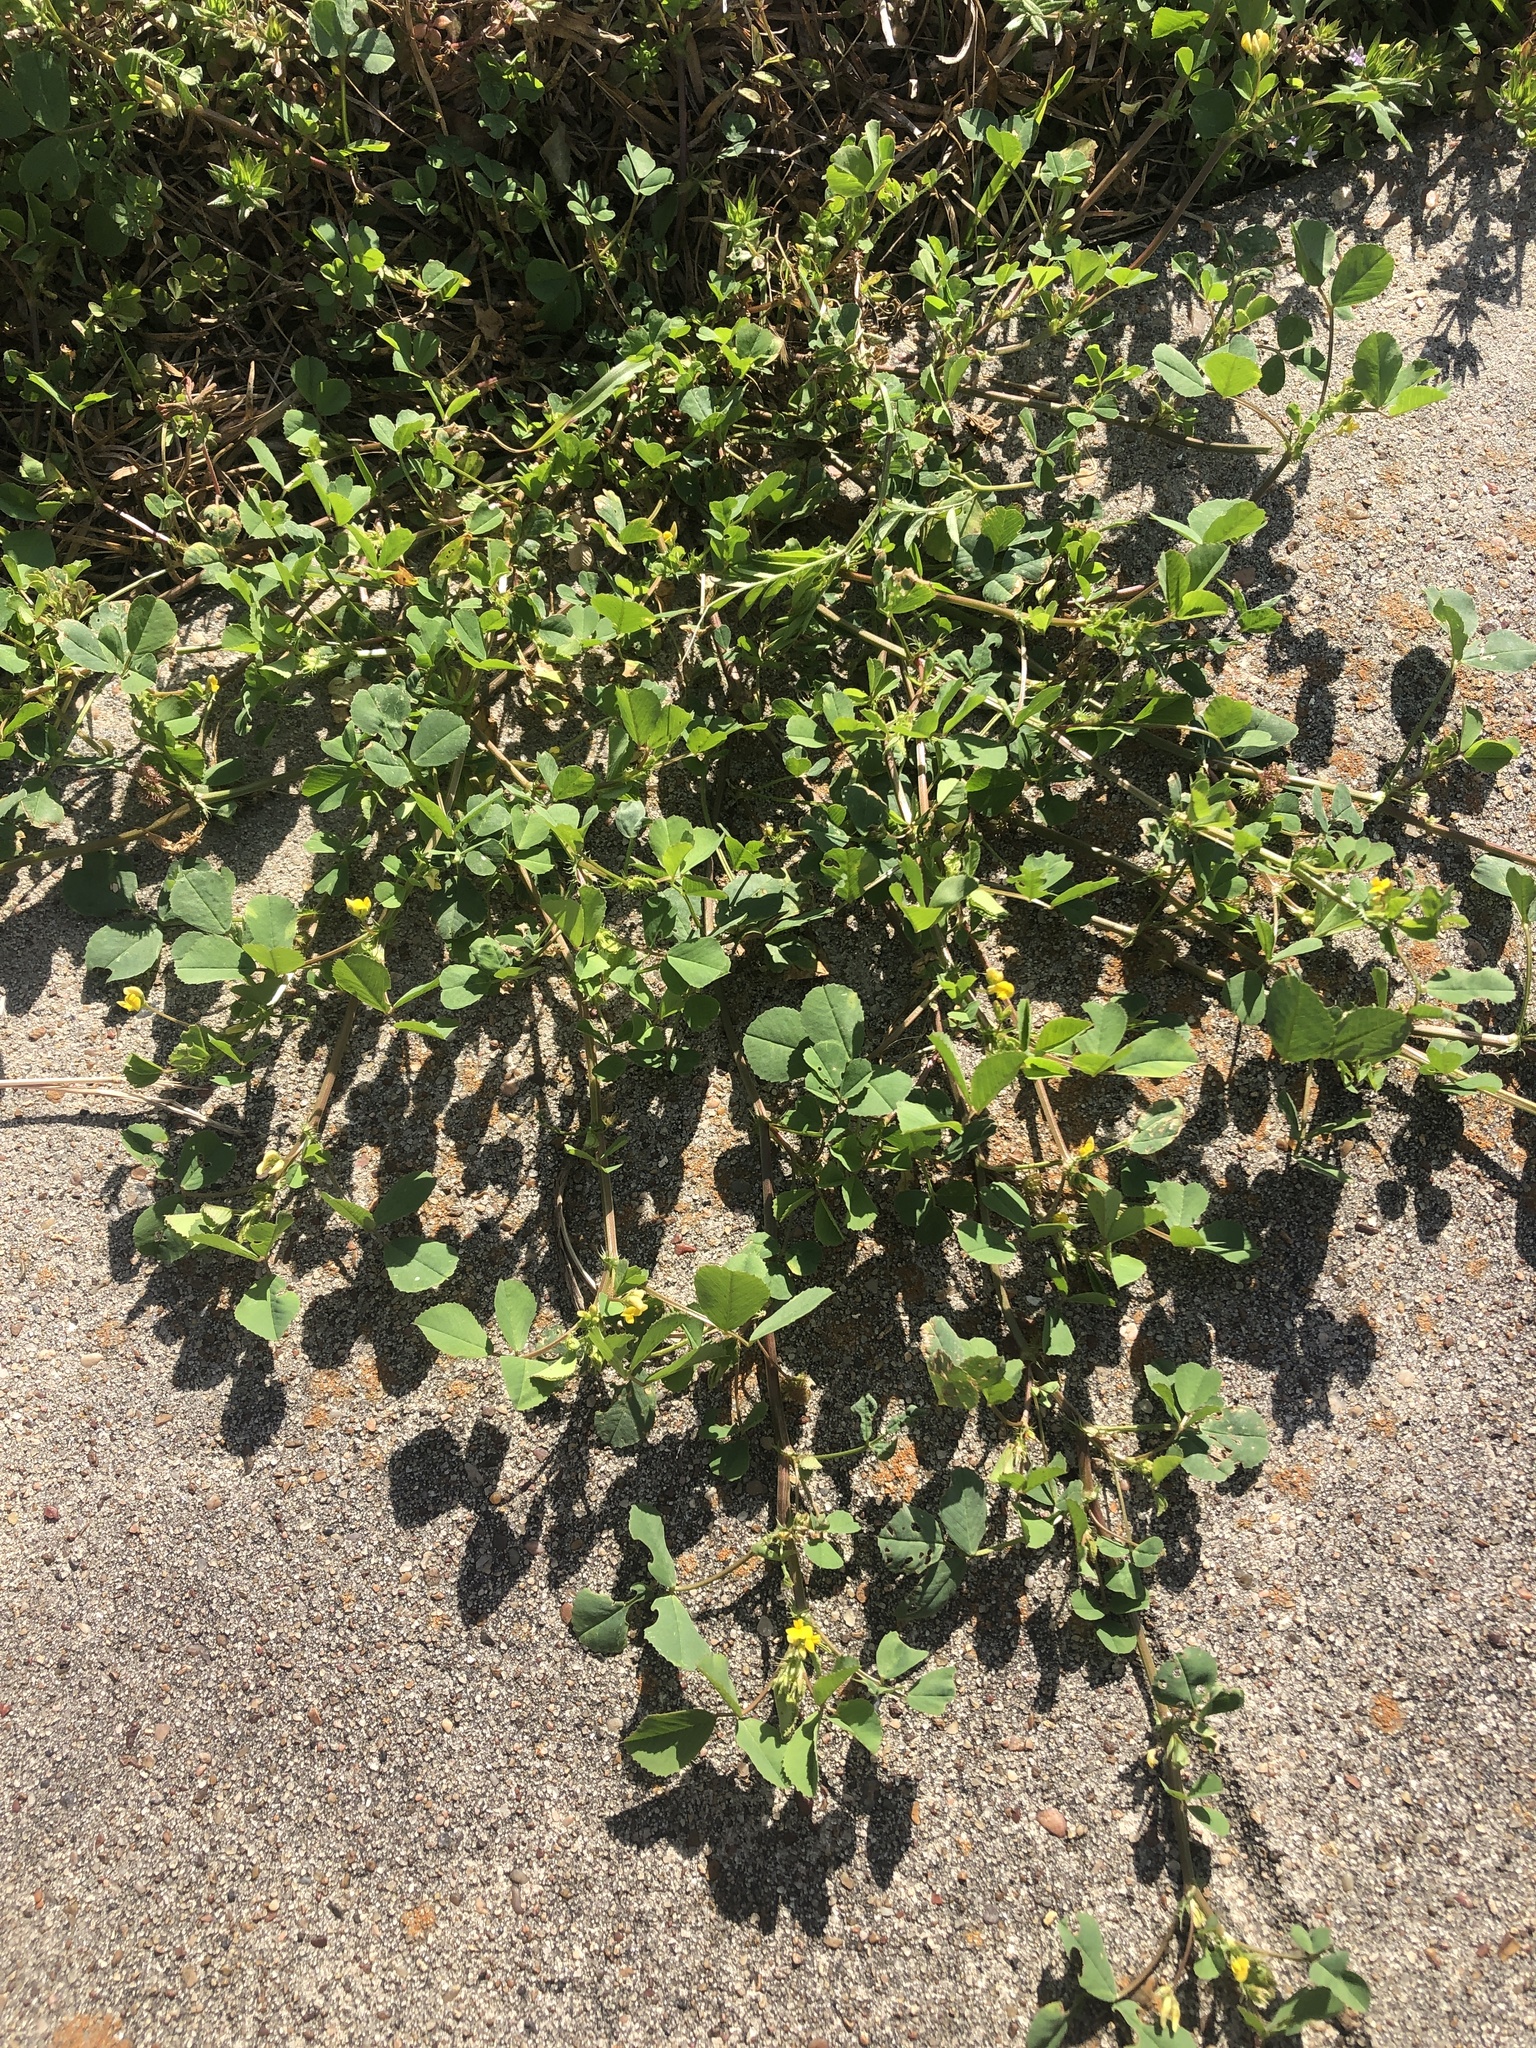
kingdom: Plantae
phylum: Tracheophyta
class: Magnoliopsida
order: Fabales
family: Fabaceae
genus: Medicago
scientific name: Medicago polymorpha
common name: Burclover
